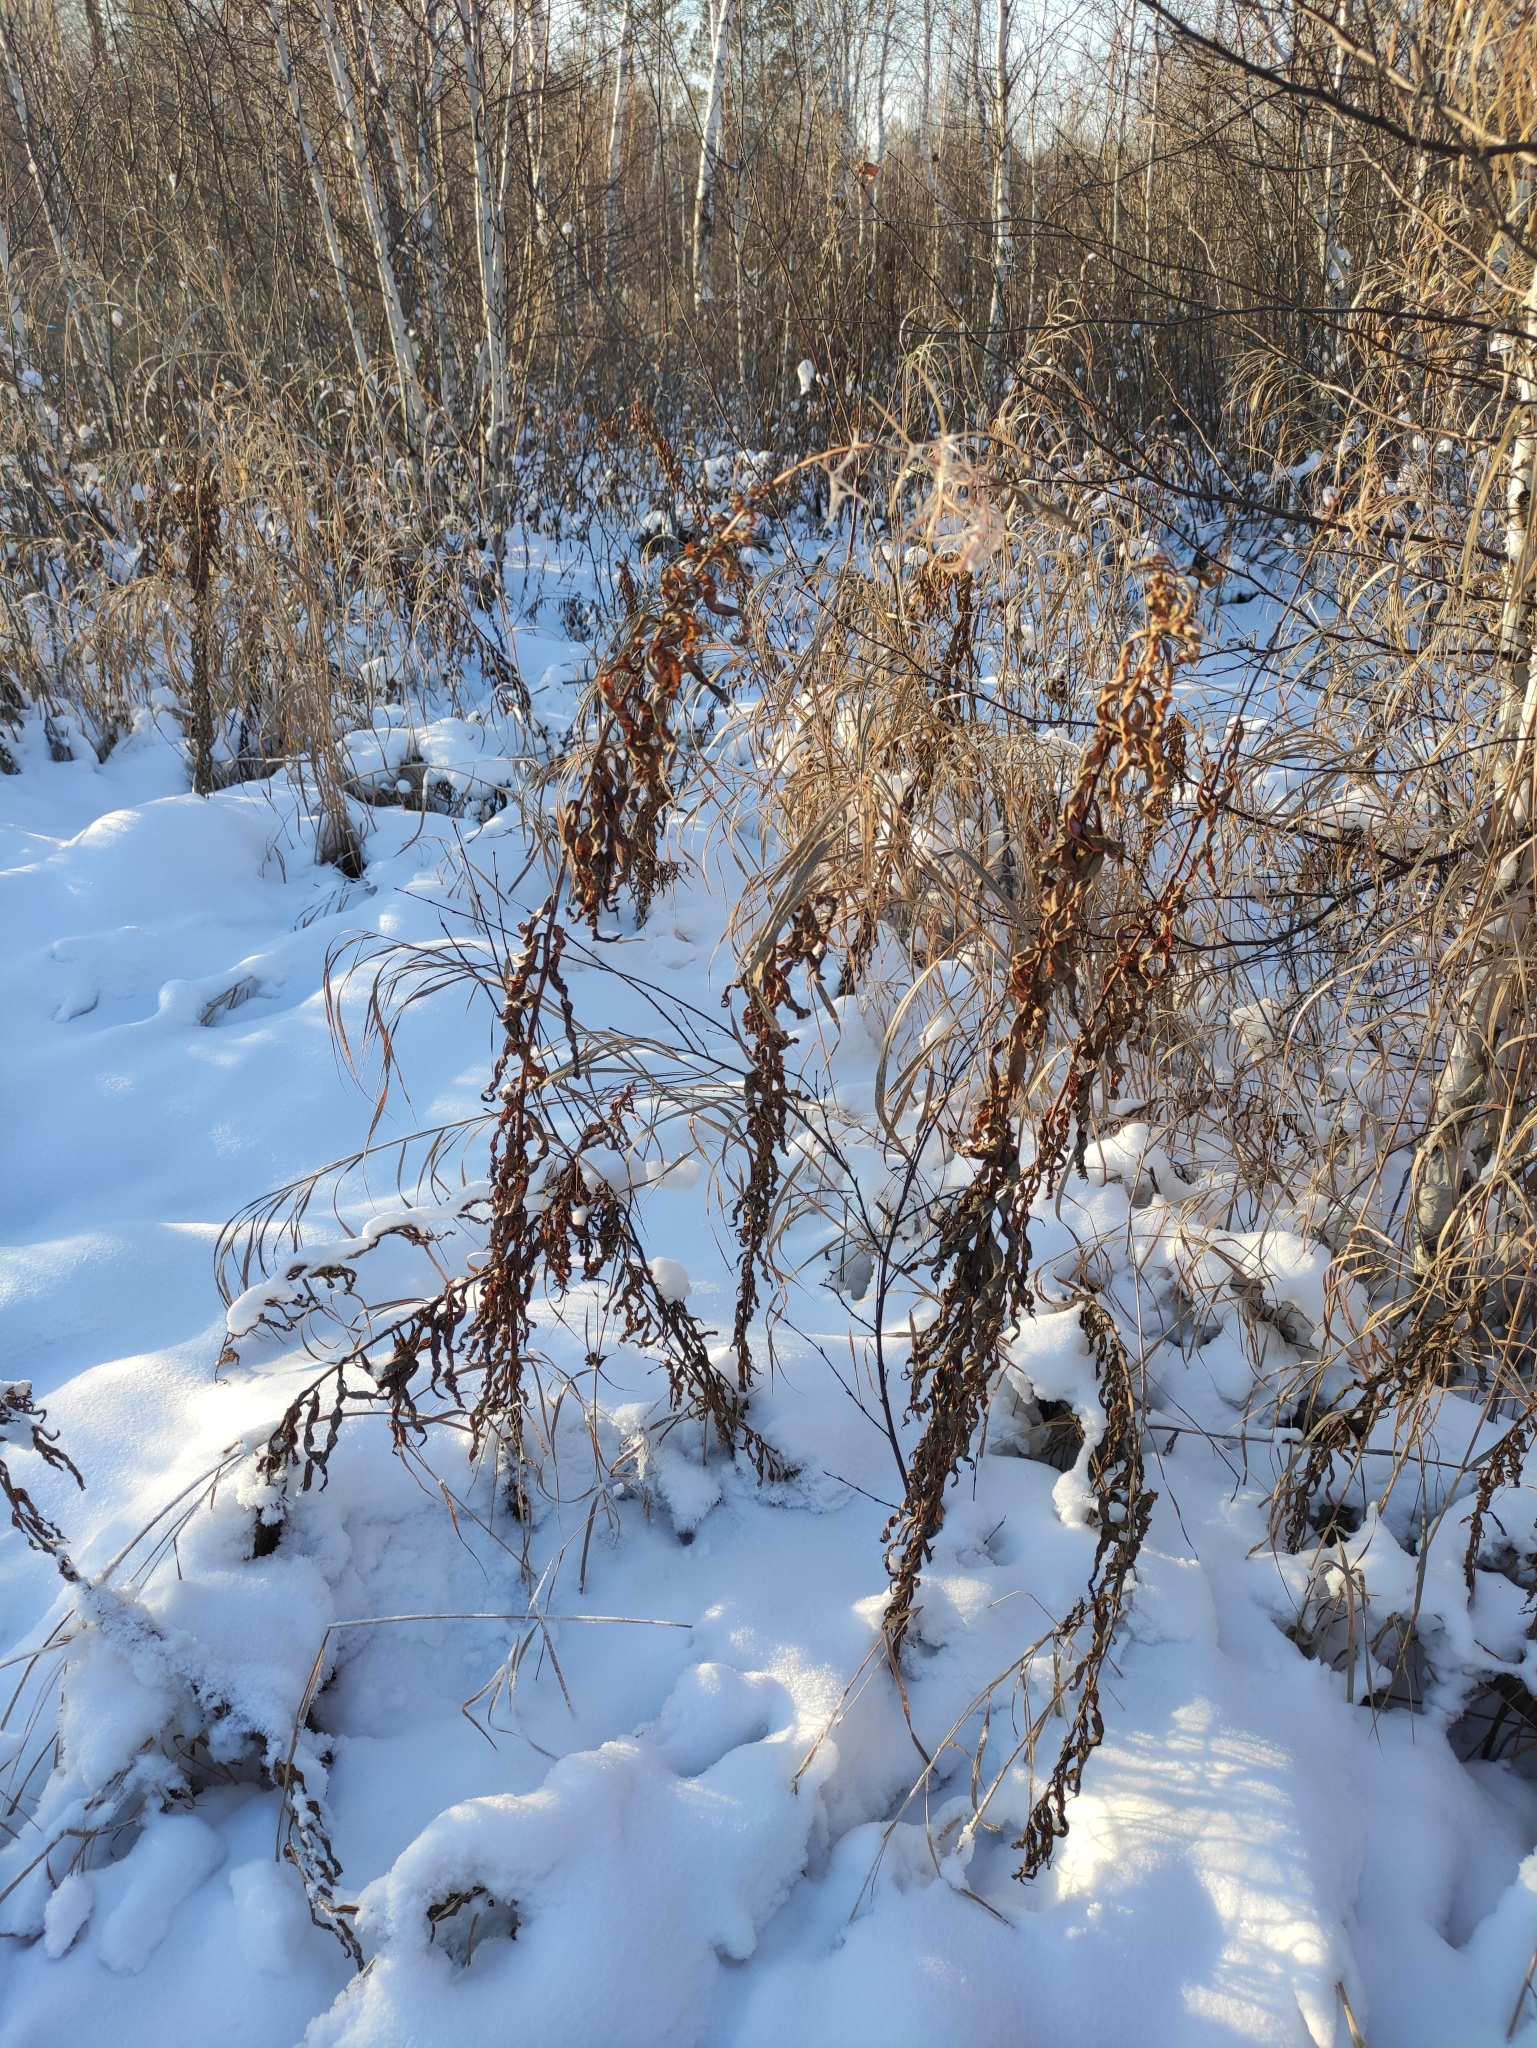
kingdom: Plantae
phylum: Tracheophyta
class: Magnoliopsida
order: Myrtales
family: Onagraceae
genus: Chamaenerion
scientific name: Chamaenerion angustifolium
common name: Fireweed
